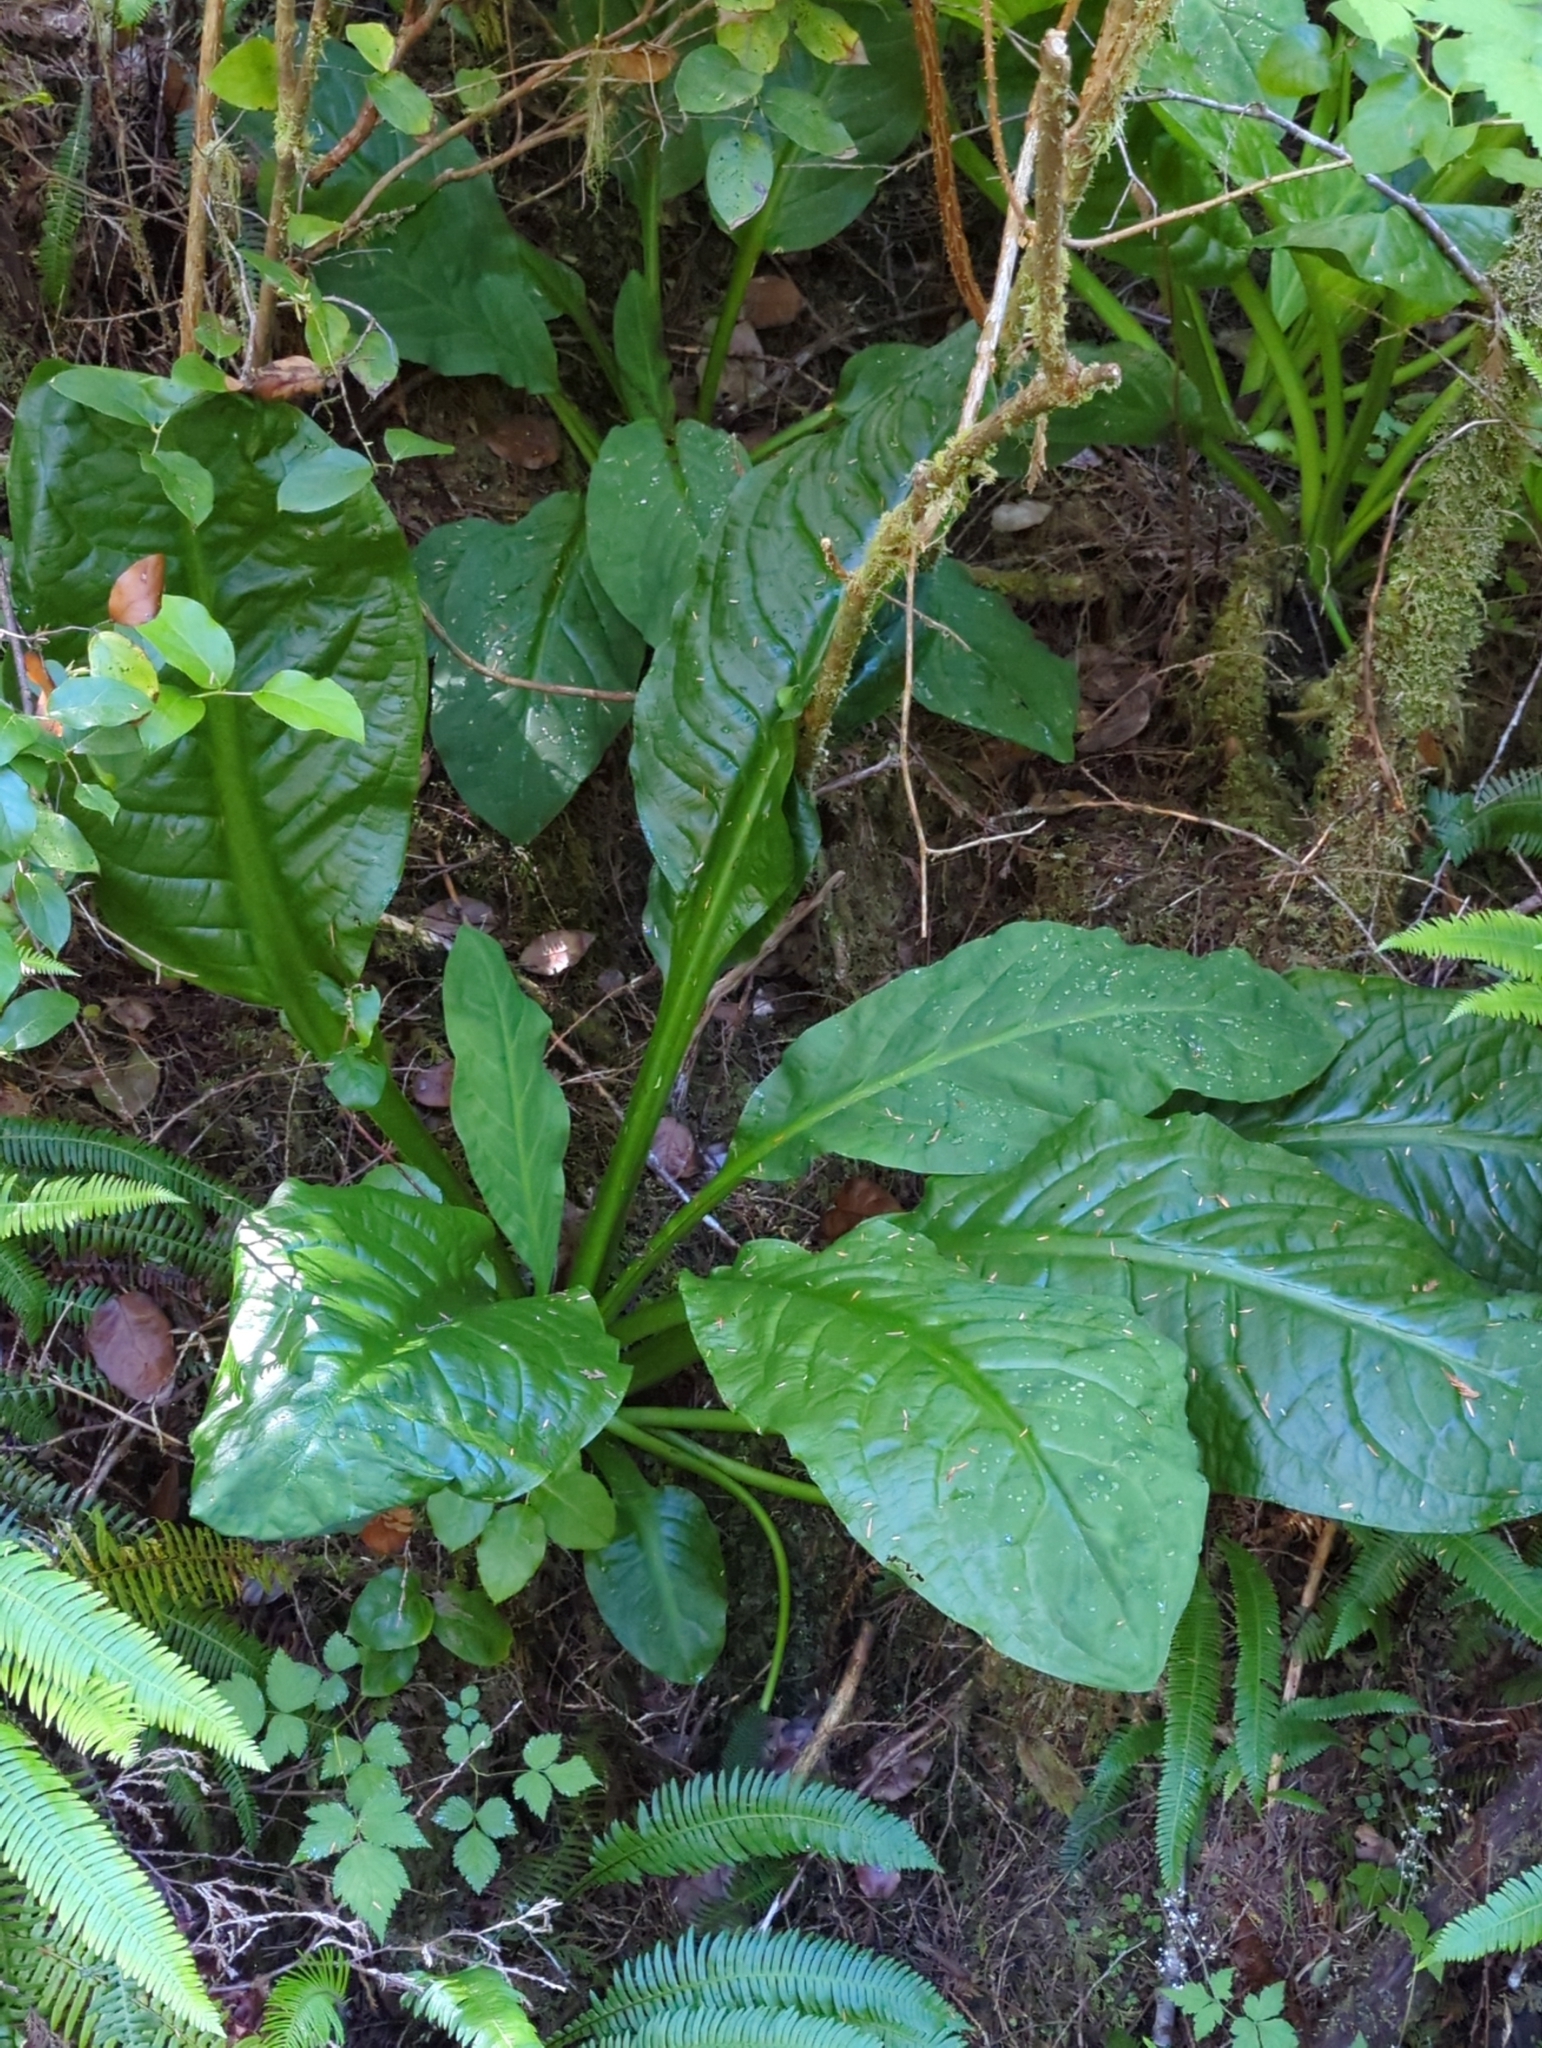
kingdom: Plantae
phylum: Tracheophyta
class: Liliopsida
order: Alismatales
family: Araceae
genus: Lysichiton
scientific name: Lysichiton americanus
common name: American skunk cabbage
